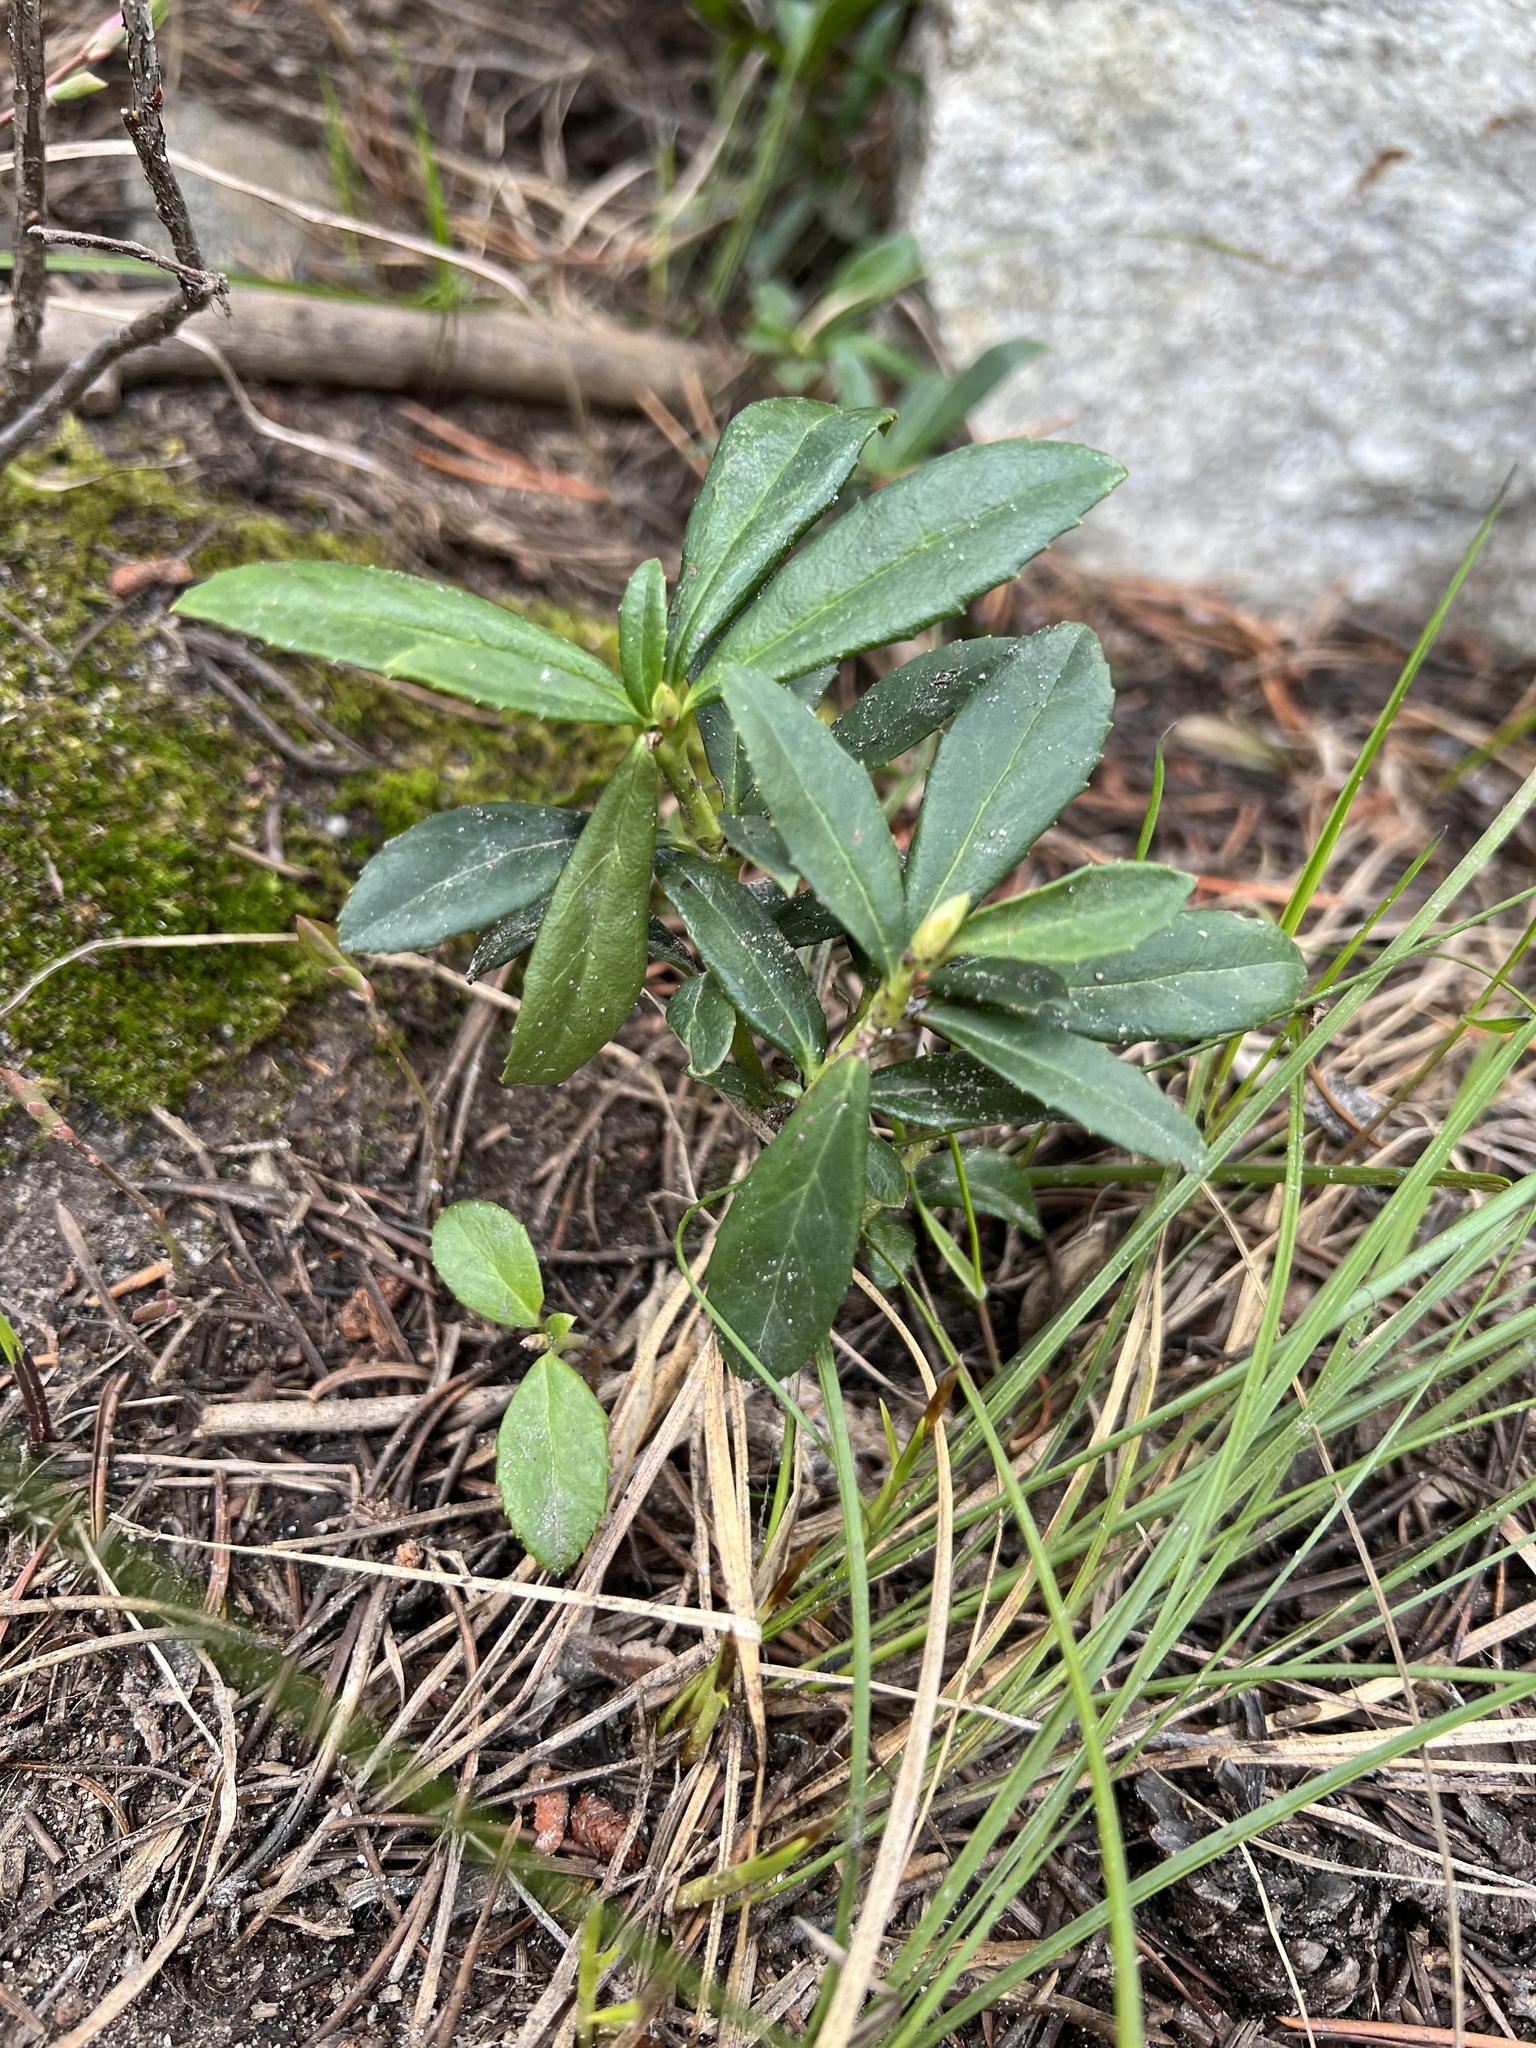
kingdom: Plantae
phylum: Tracheophyta
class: Magnoliopsida
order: Ericales
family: Ericaceae
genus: Chimaphila
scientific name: Chimaphila umbellata
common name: Pipsissewa
